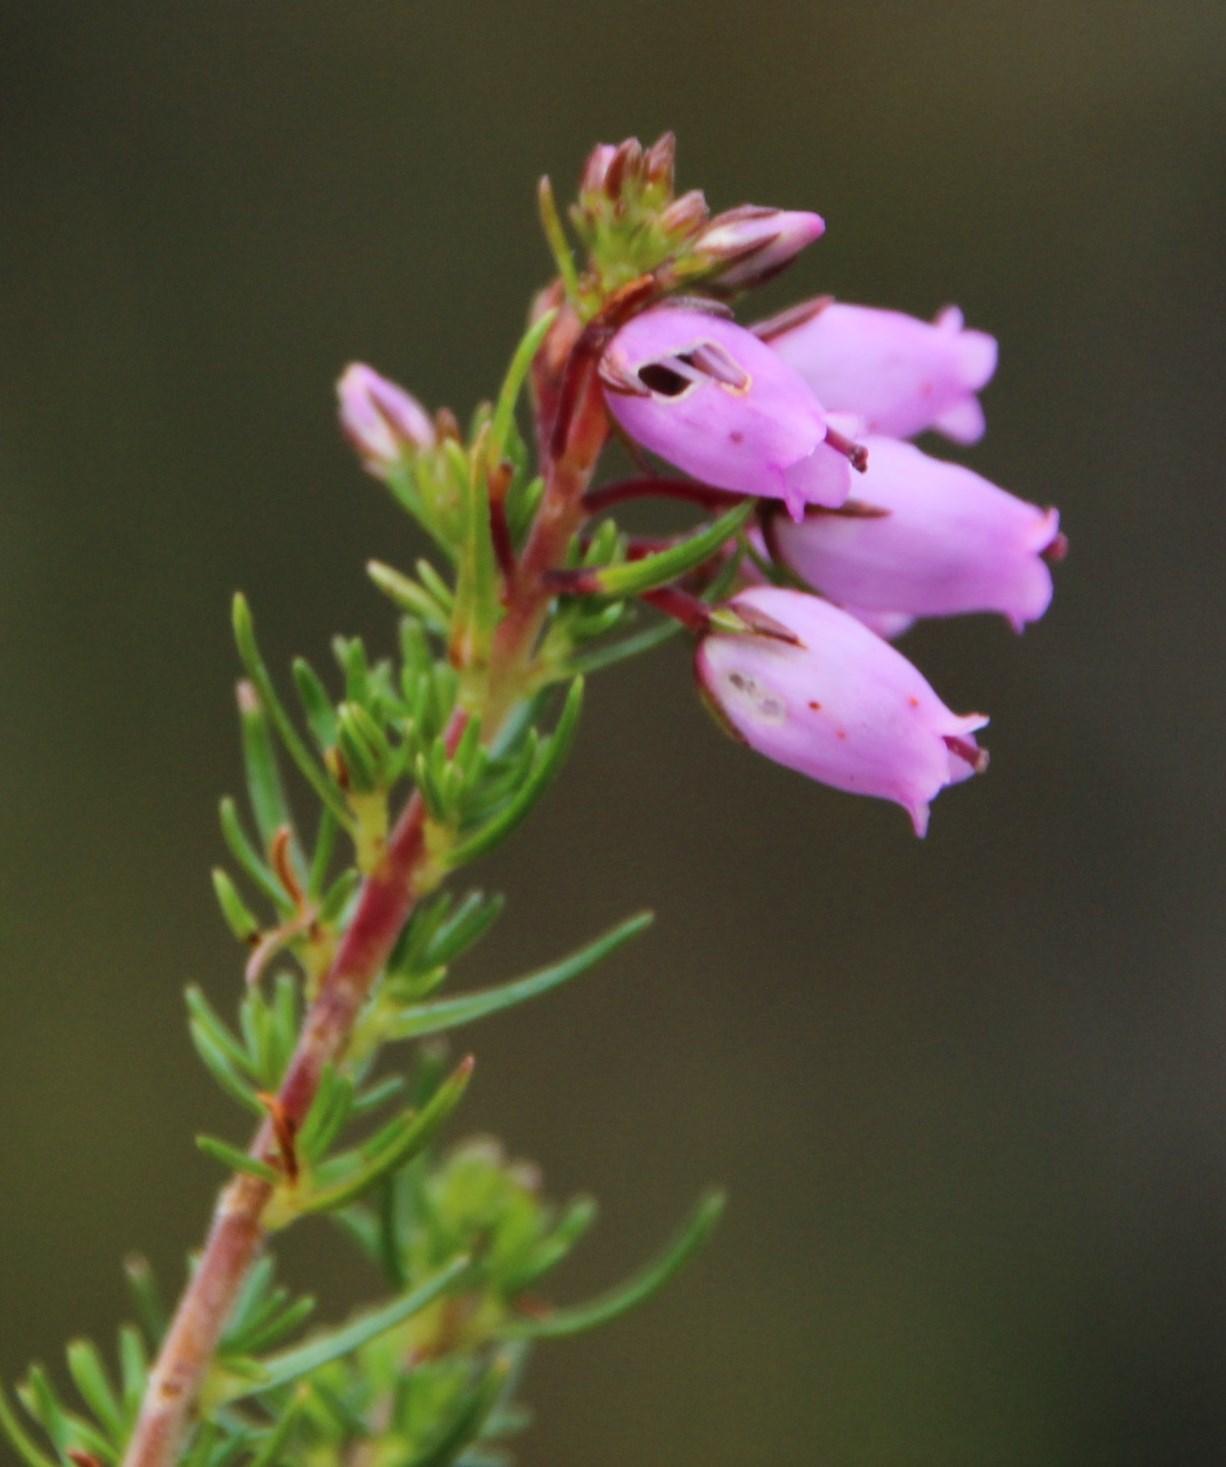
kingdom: Plantae
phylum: Tracheophyta
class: Magnoliopsida
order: Ericales
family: Ericaceae
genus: Erica
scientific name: Erica cinerea
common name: Bell heather
